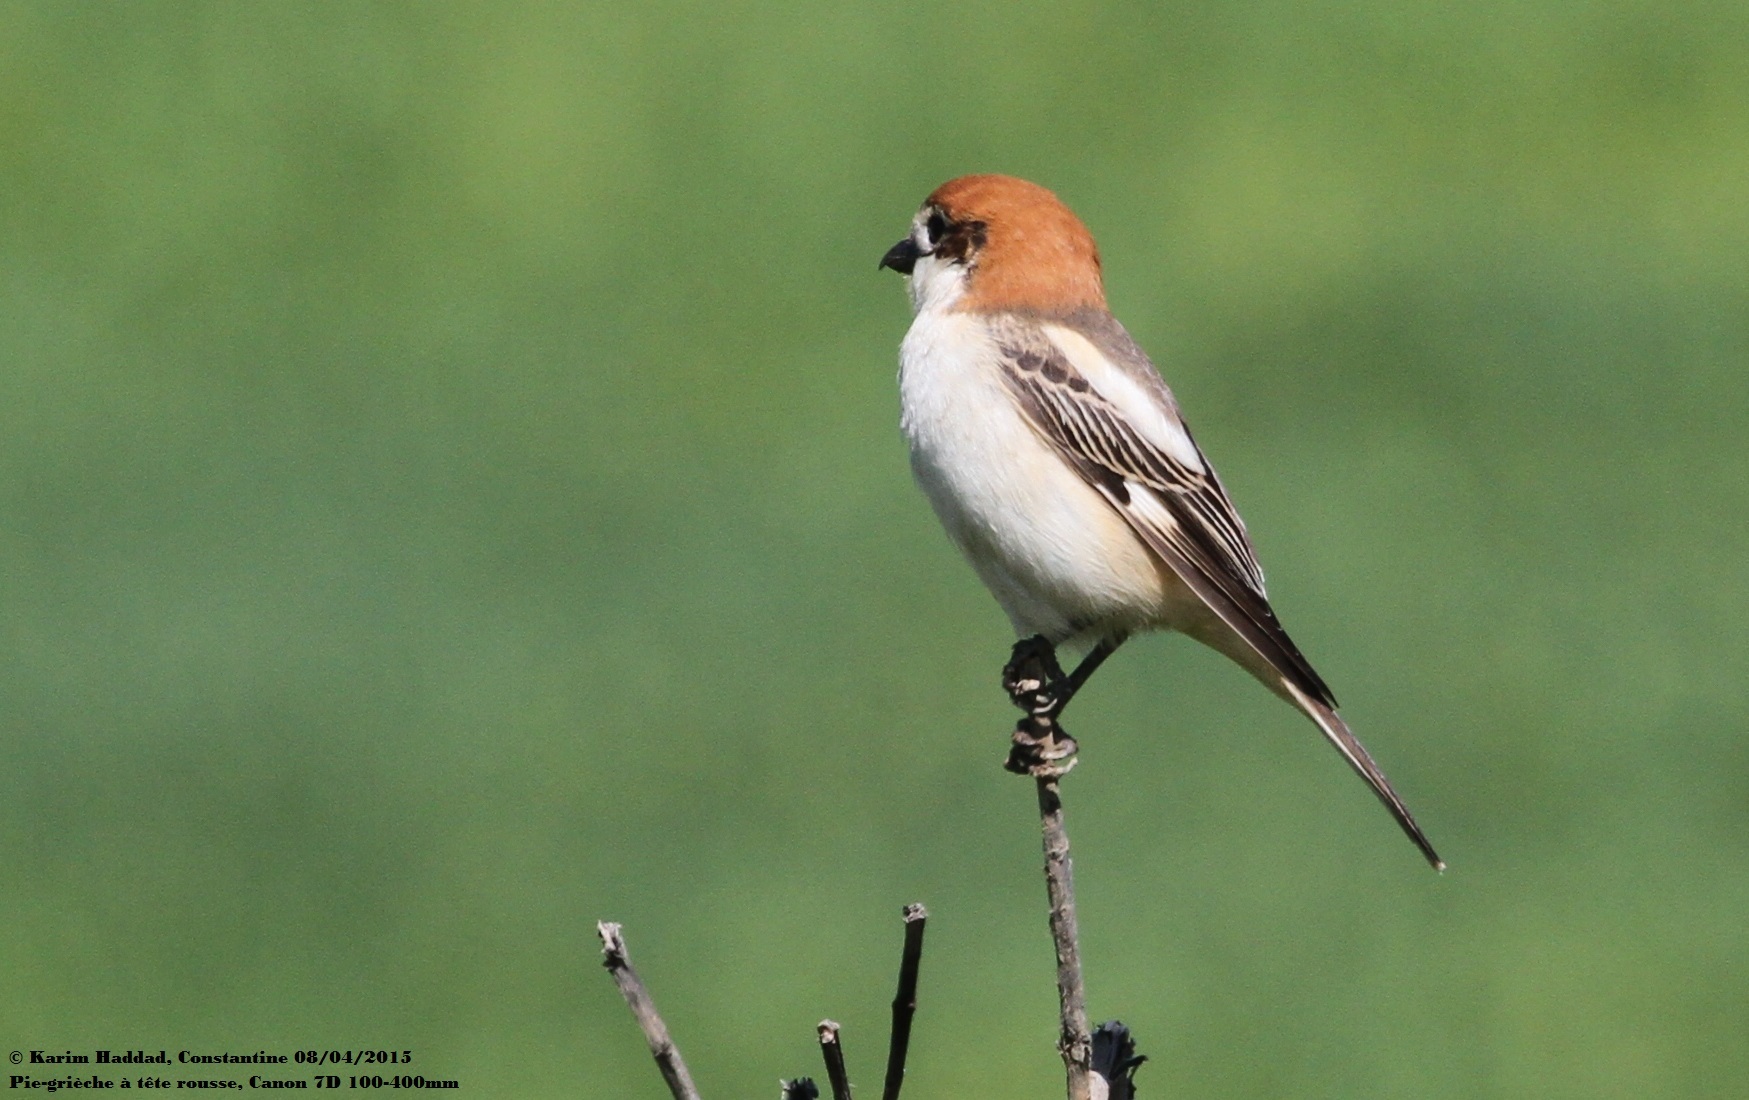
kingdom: Animalia
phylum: Chordata
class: Aves
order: Passeriformes
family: Laniidae
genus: Lanius
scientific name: Lanius senator
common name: Woodchat shrike
